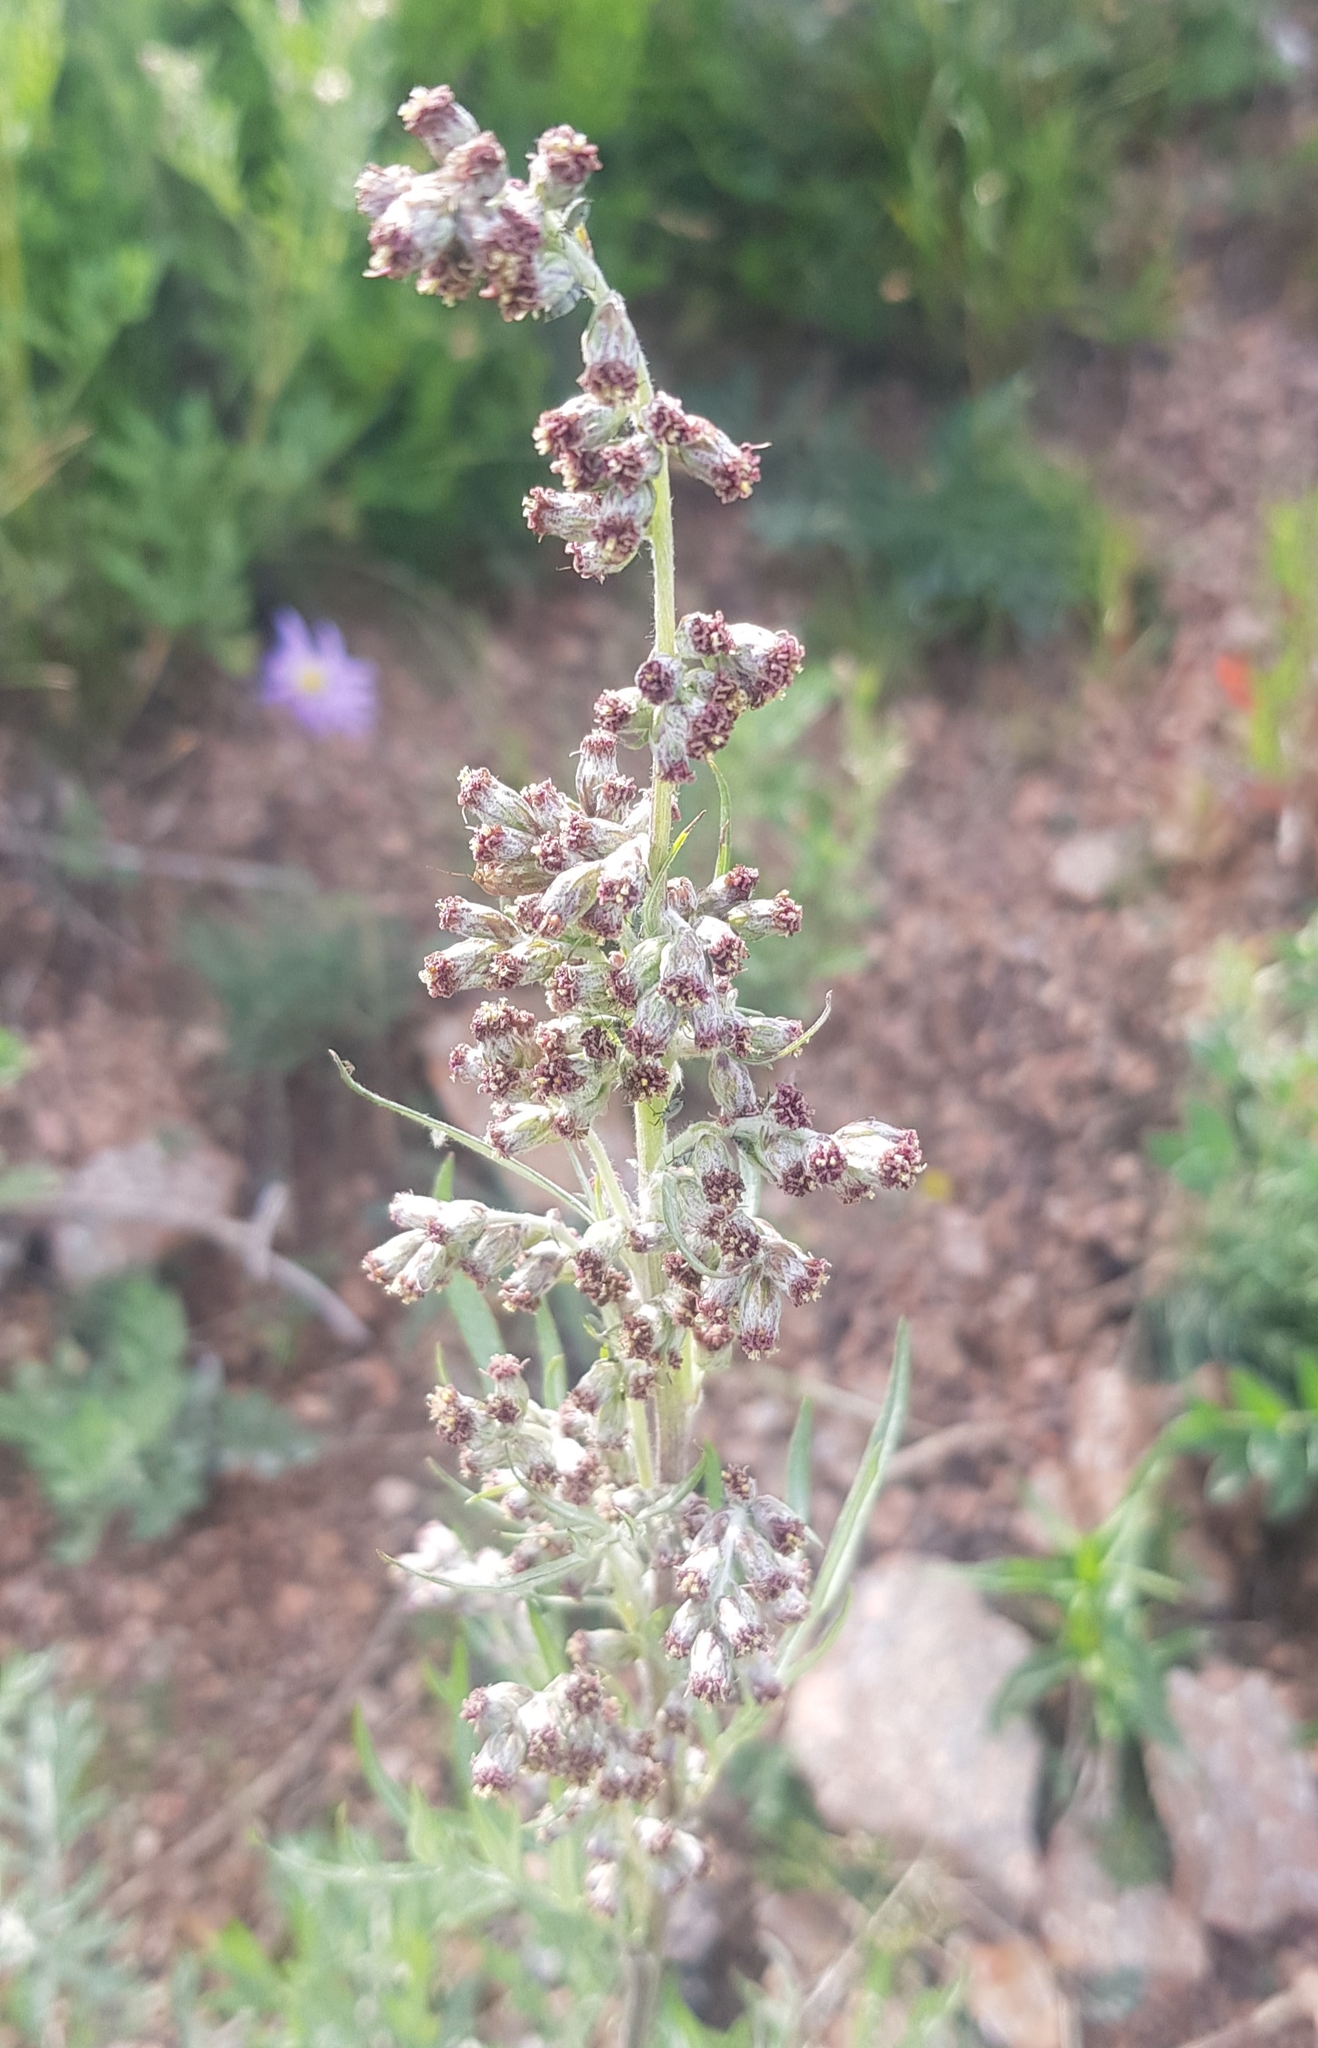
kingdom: Plantae
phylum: Tracheophyta
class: Magnoliopsida
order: Asterales
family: Asteraceae
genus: Artemisia
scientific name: Artemisia vulgaris
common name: Mugwort
